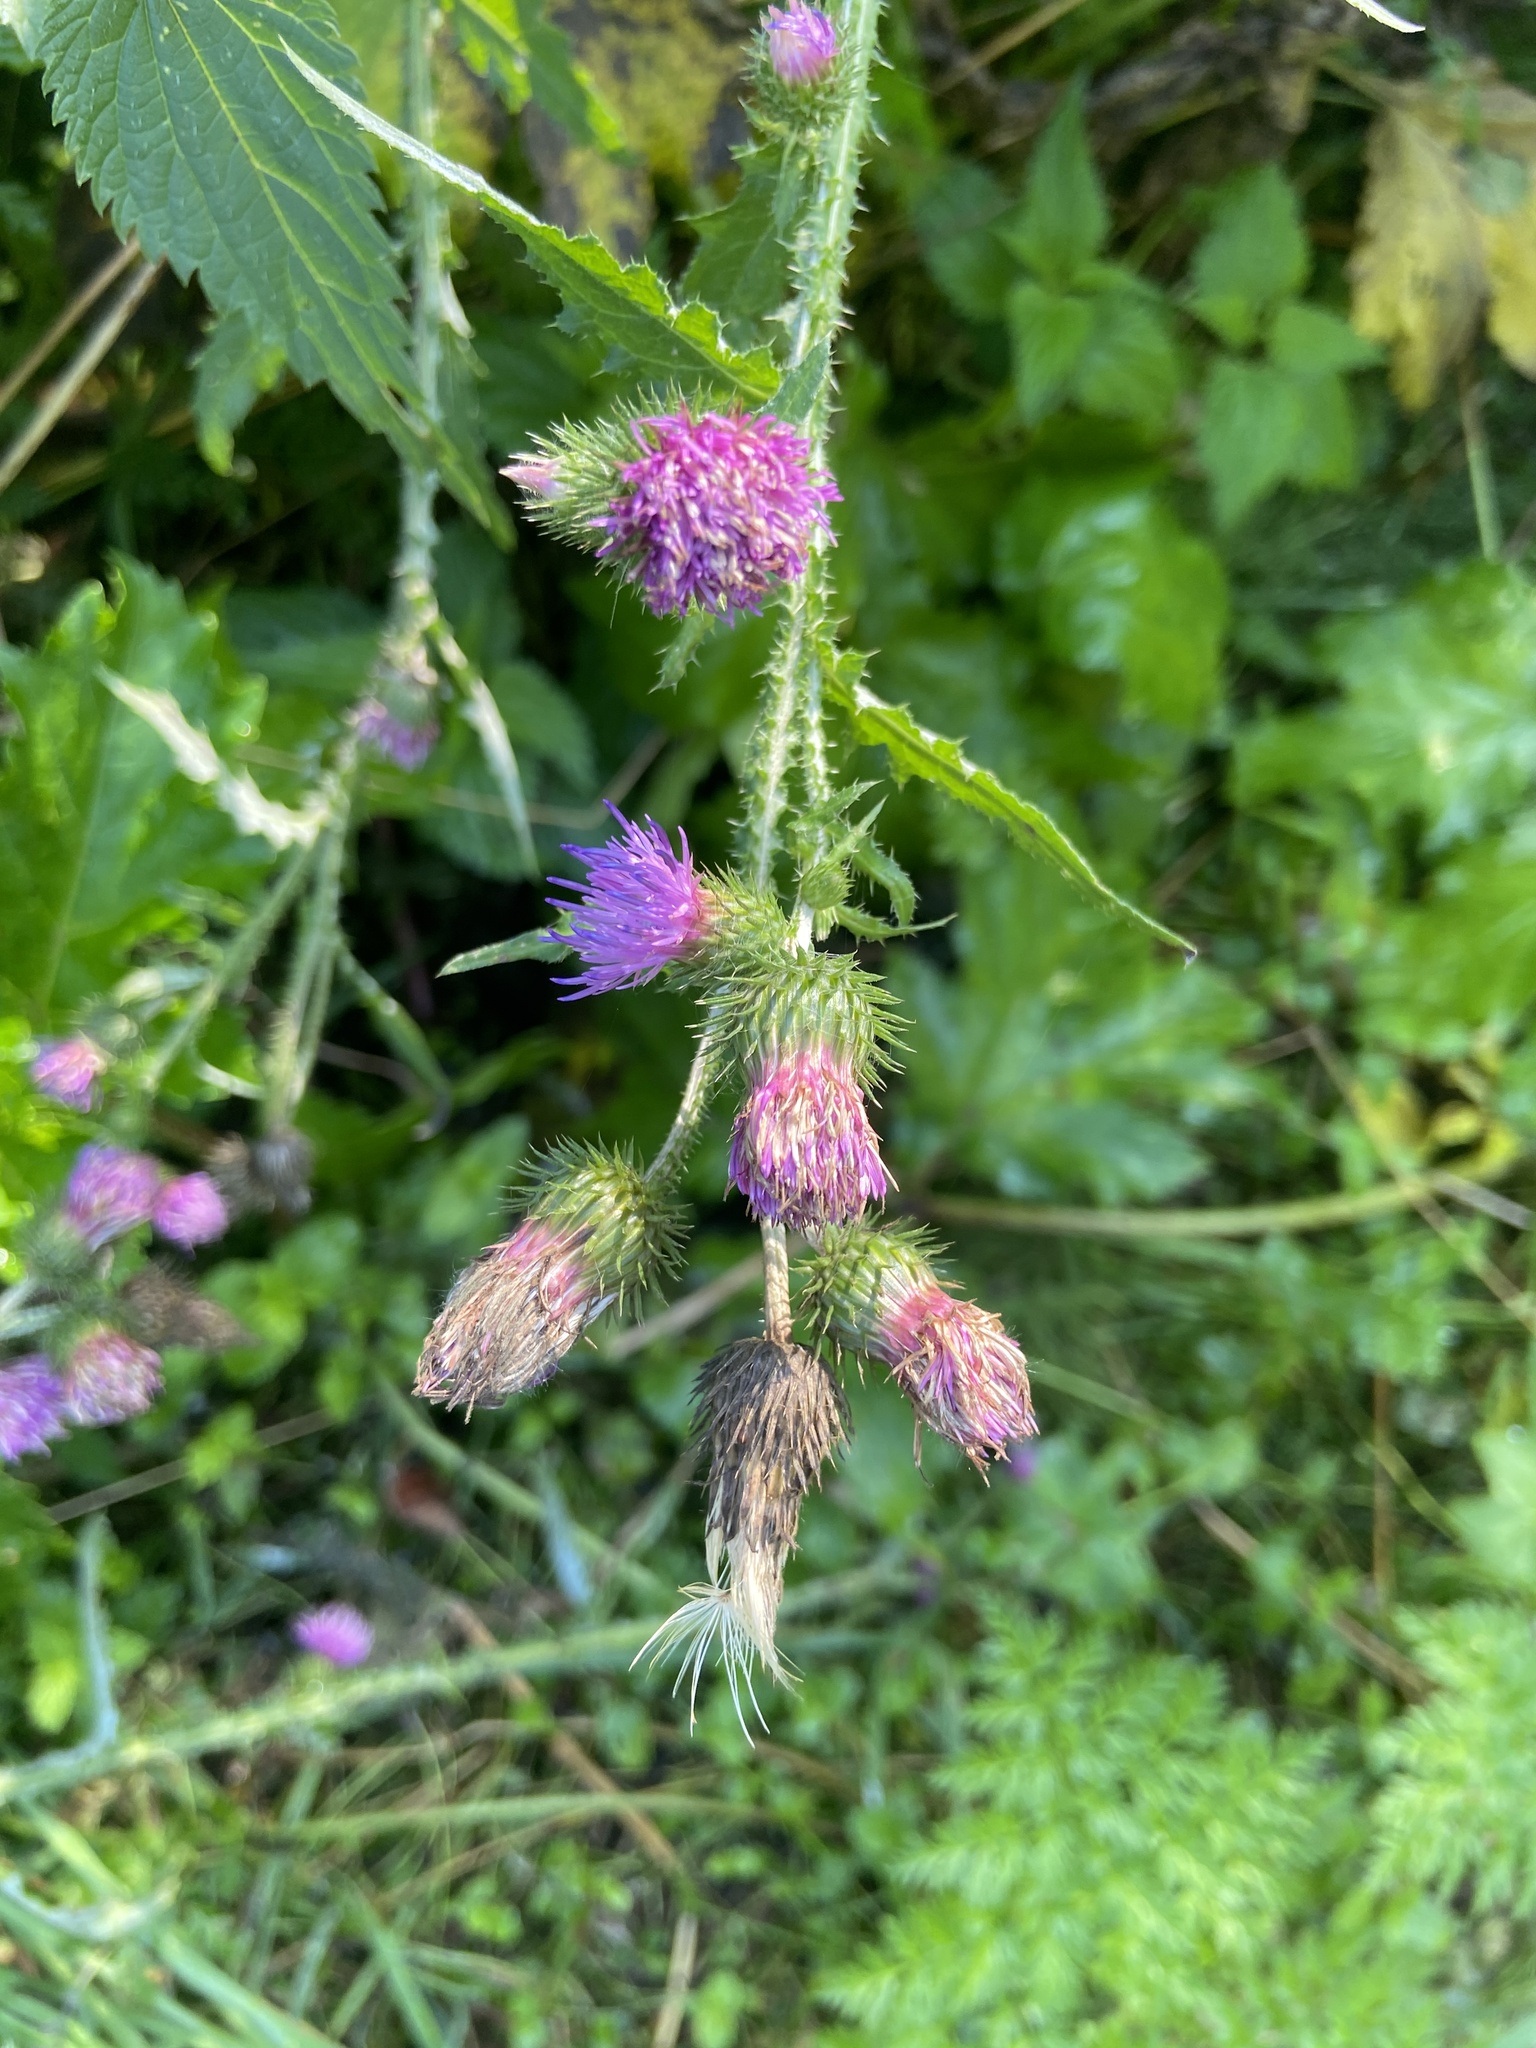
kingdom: Plantae
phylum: Tracheophyta
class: Magnoliopsida
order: Asterales
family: Asteraceae
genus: Carduus
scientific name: Carduus crispus
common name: Welted thistle
